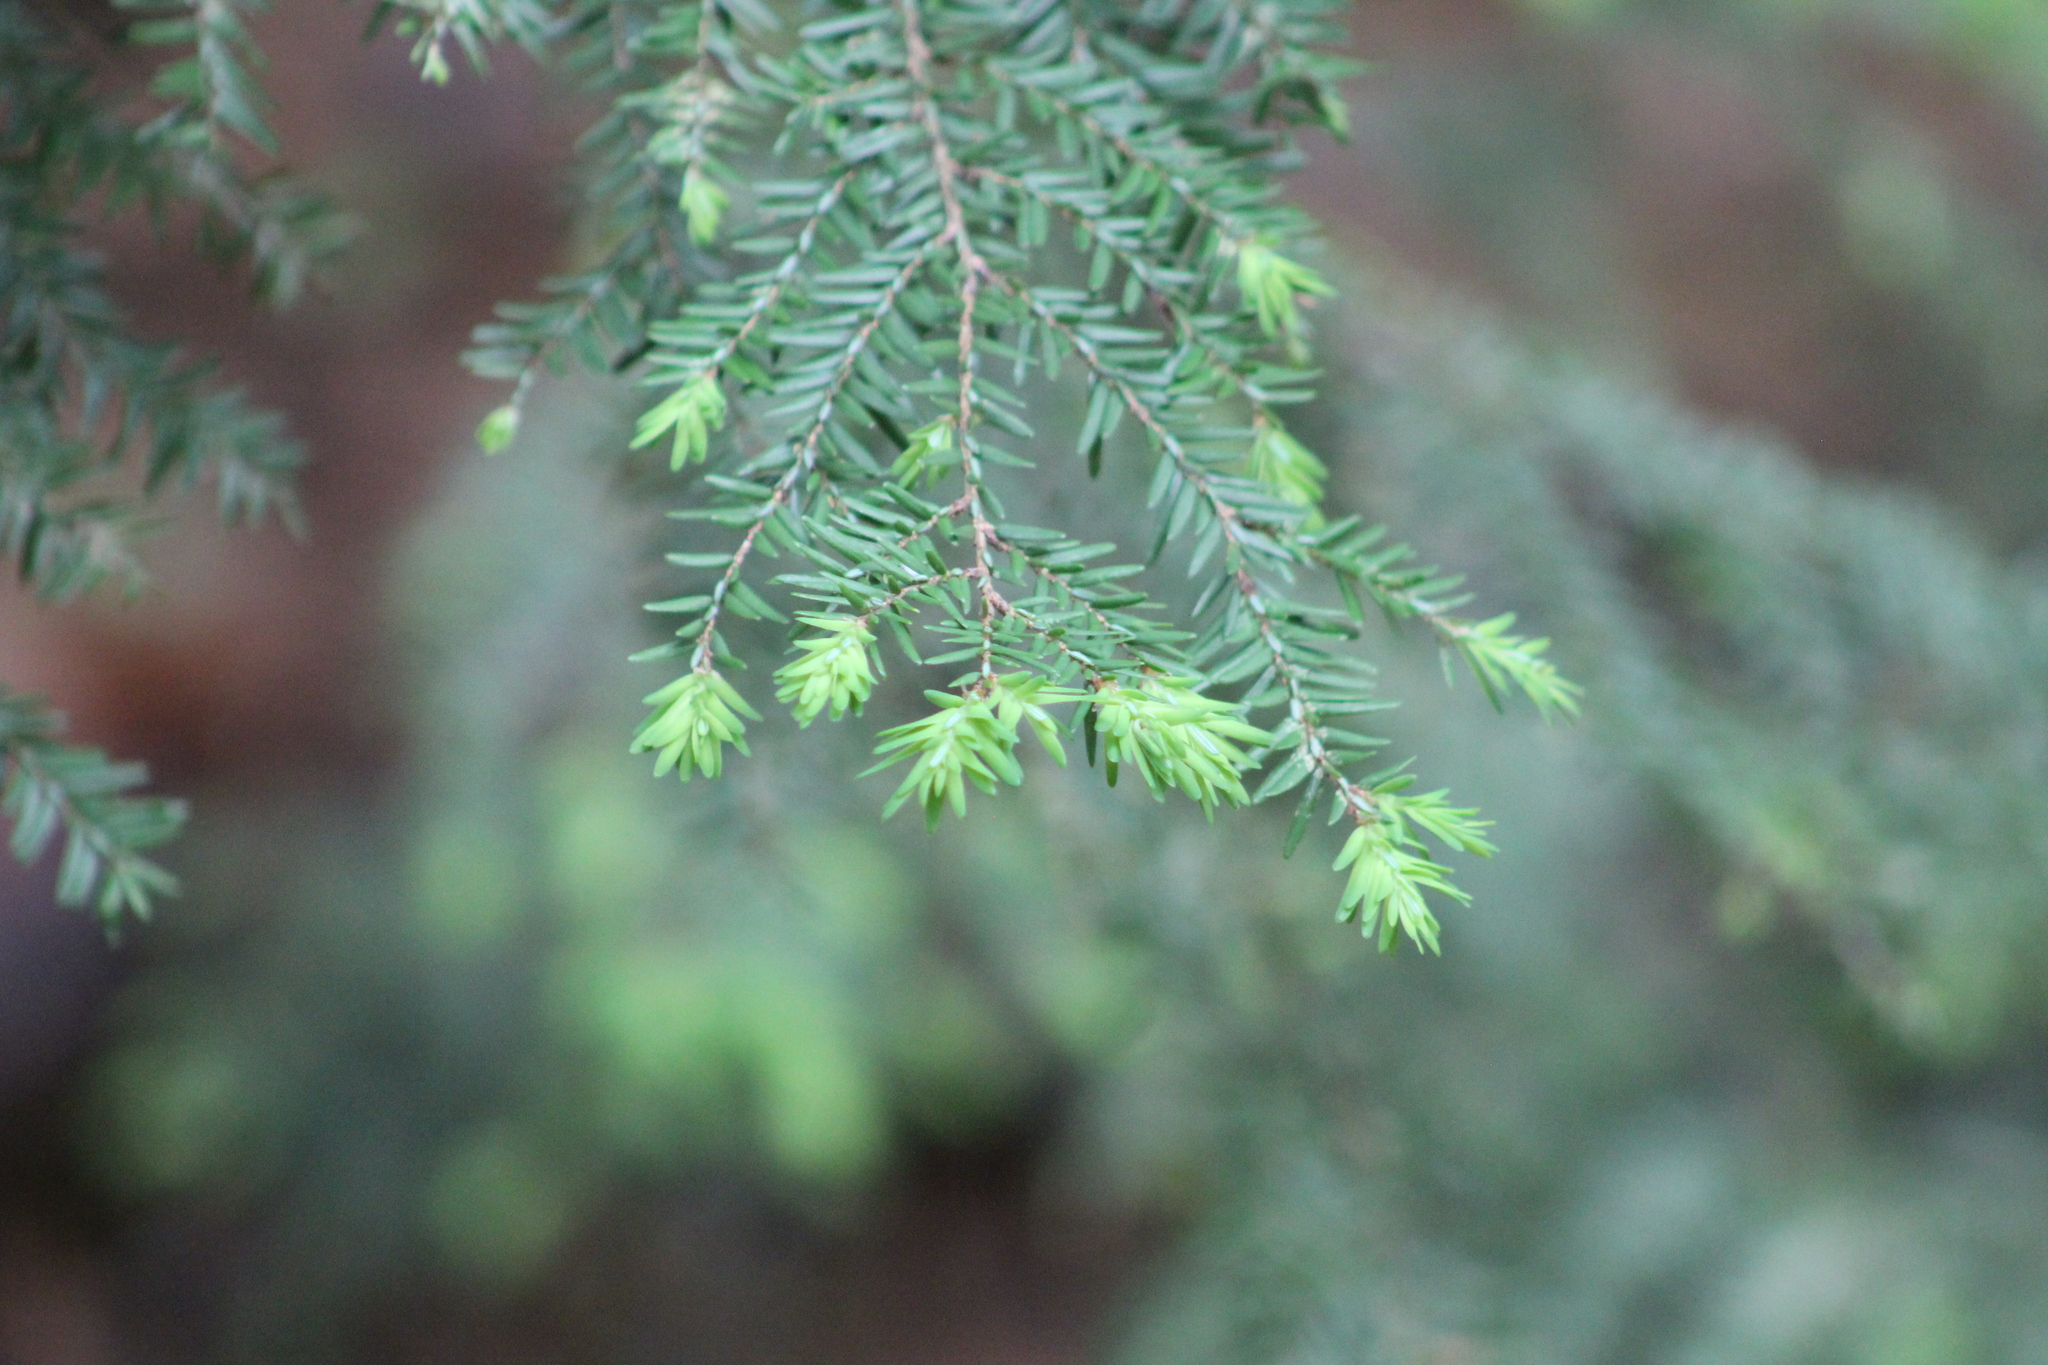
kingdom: Plantae
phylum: Tracheophyta
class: Pinopsida
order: Pinales
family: Pinaceae
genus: Tsuga
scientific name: Tsuga canadensis
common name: Eastern hemlock
